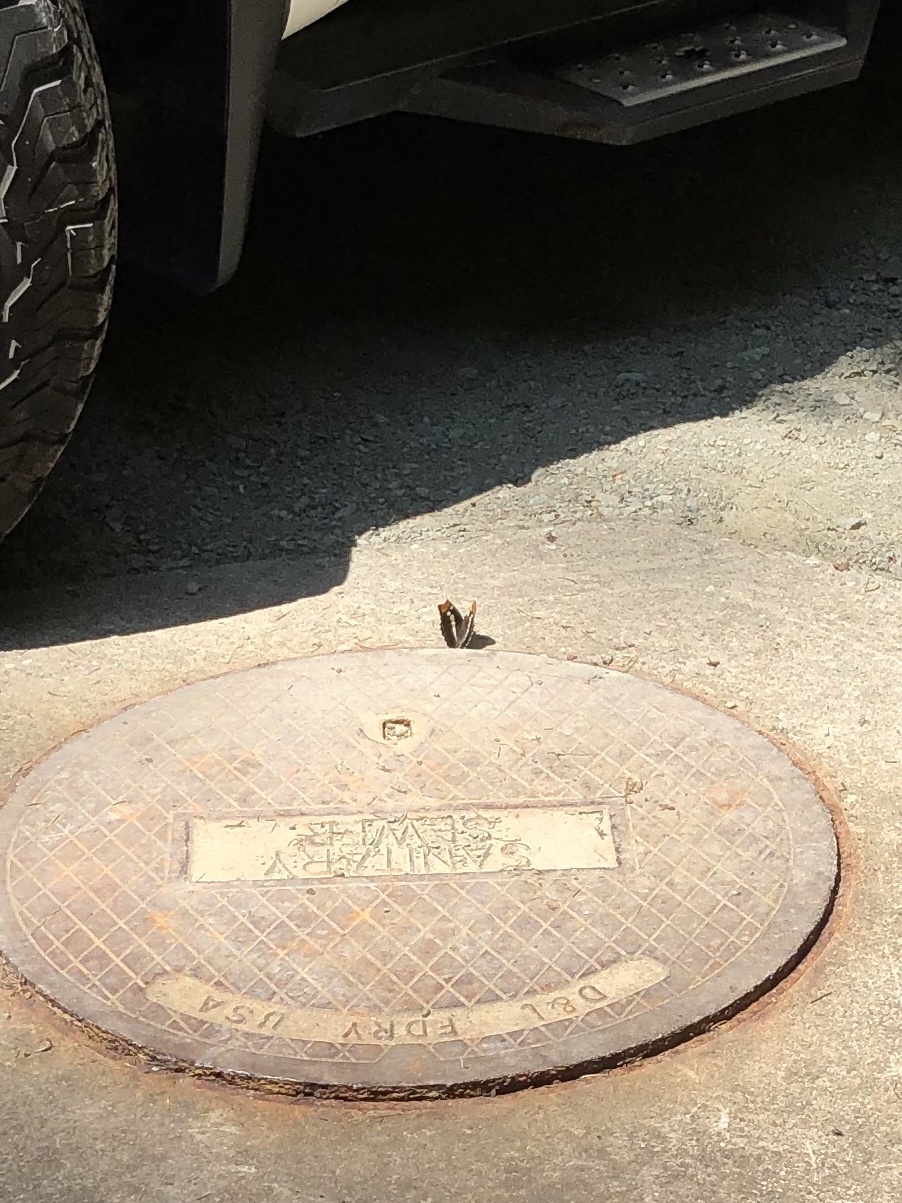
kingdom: Animalia
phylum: Arthropoda
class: Insecta
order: Lepidoptera
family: Nymphalidae
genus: Limenitis
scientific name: Limenitis bredowii
